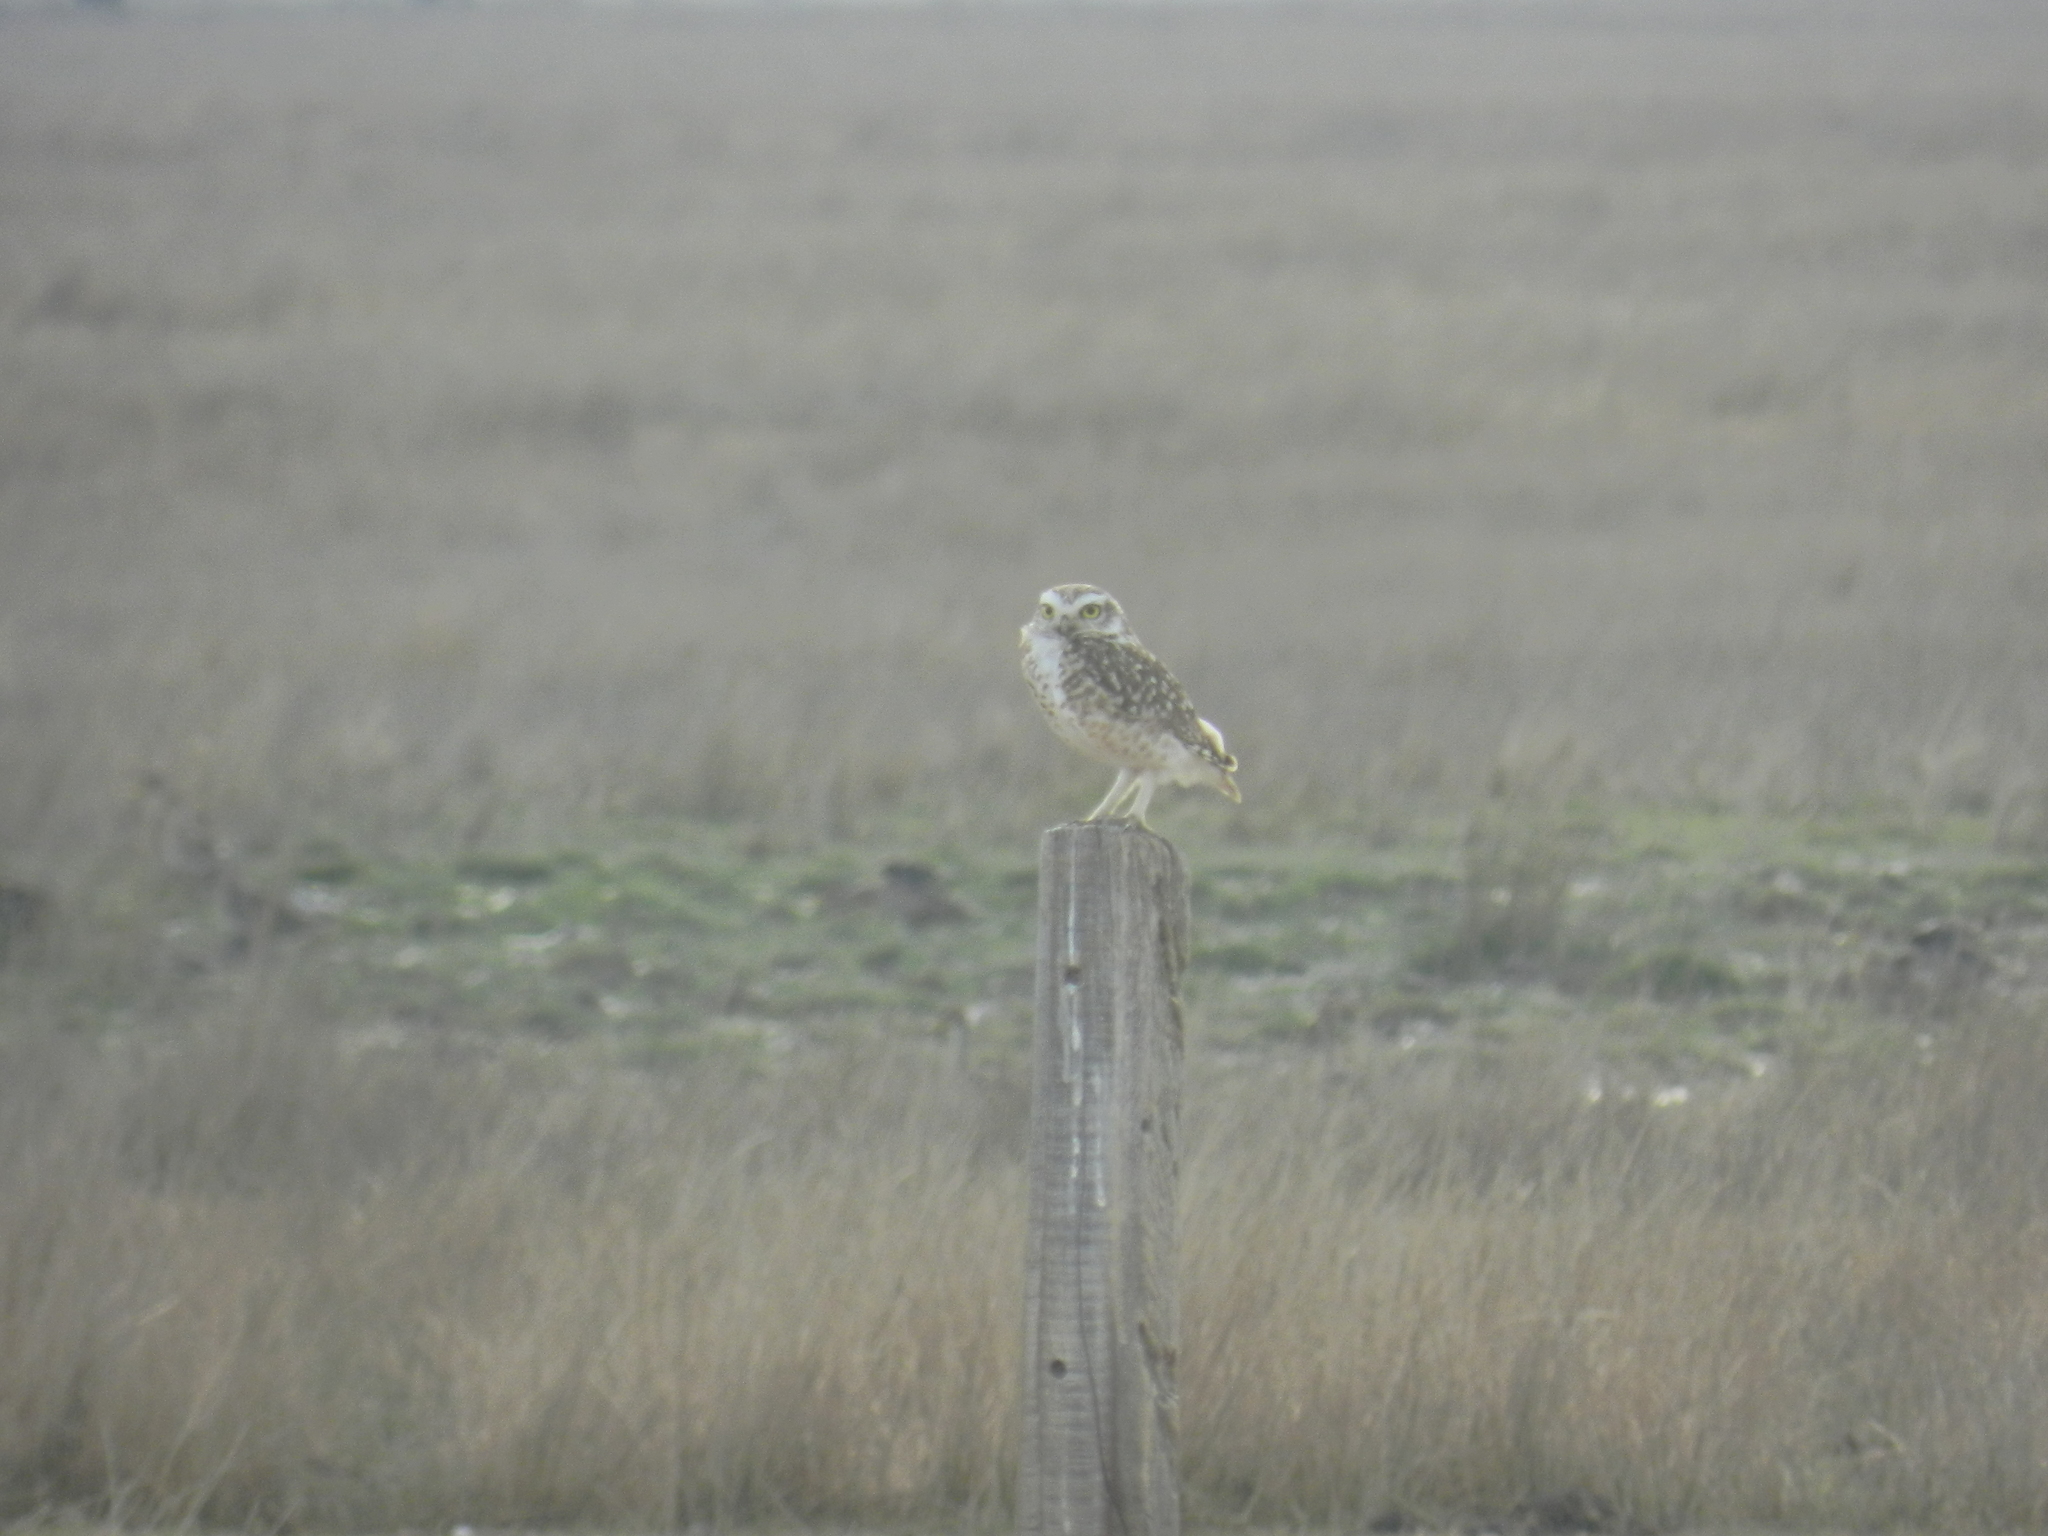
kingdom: Animalia
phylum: Chordata
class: Aves
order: Strigiformes
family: Strigidae
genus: Athene
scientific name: Athene cunicularia
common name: Burrowing owl
